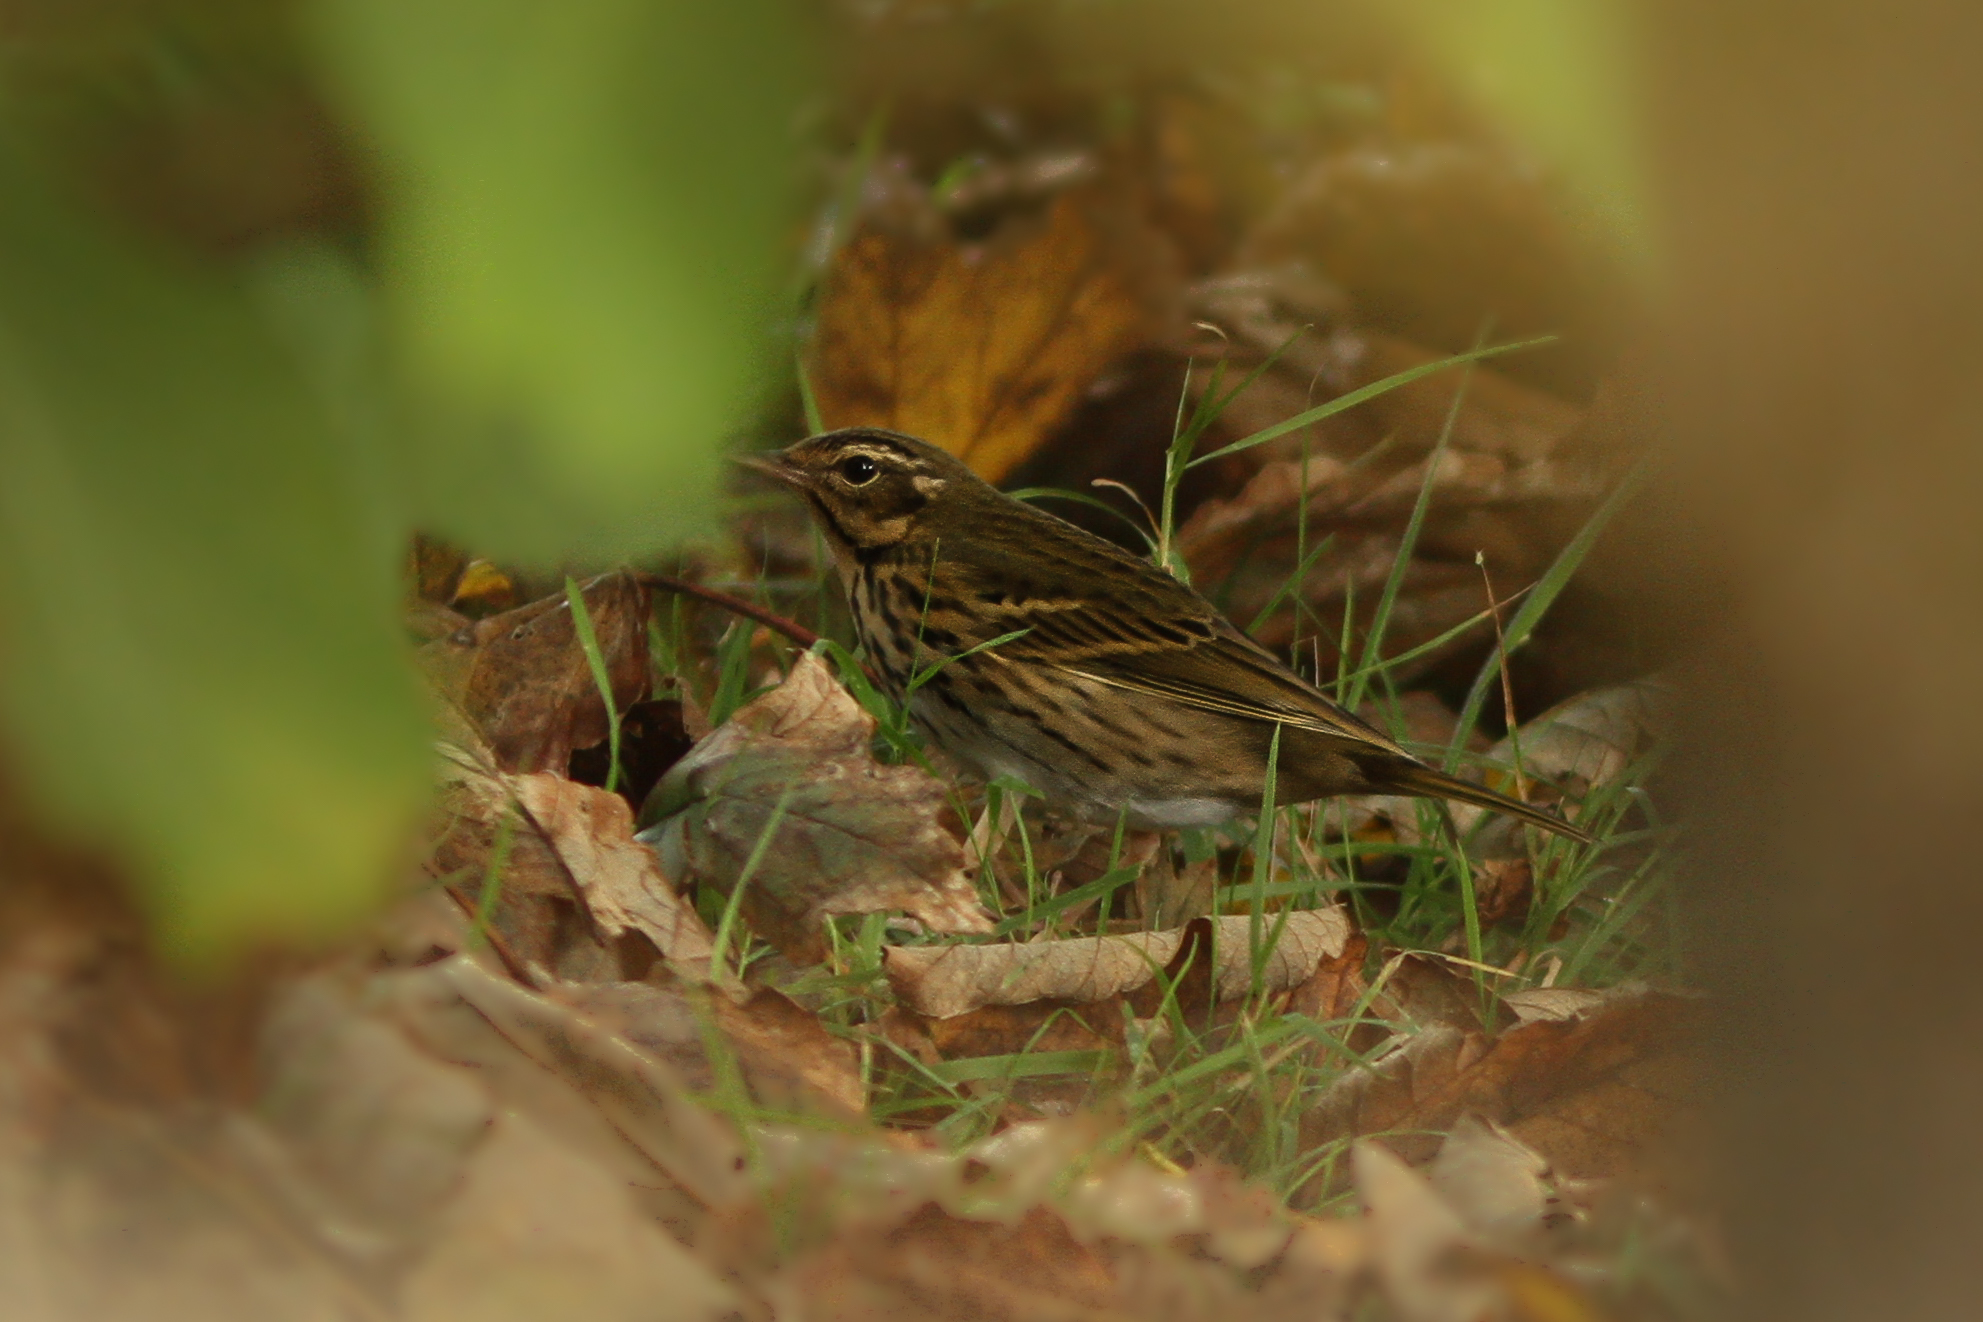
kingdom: Animalia
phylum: Chordata
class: Aves
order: Passeriformes
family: Motacillidae
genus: Anthus
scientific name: Anthus hodgsoni
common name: Olive-backed pipit
